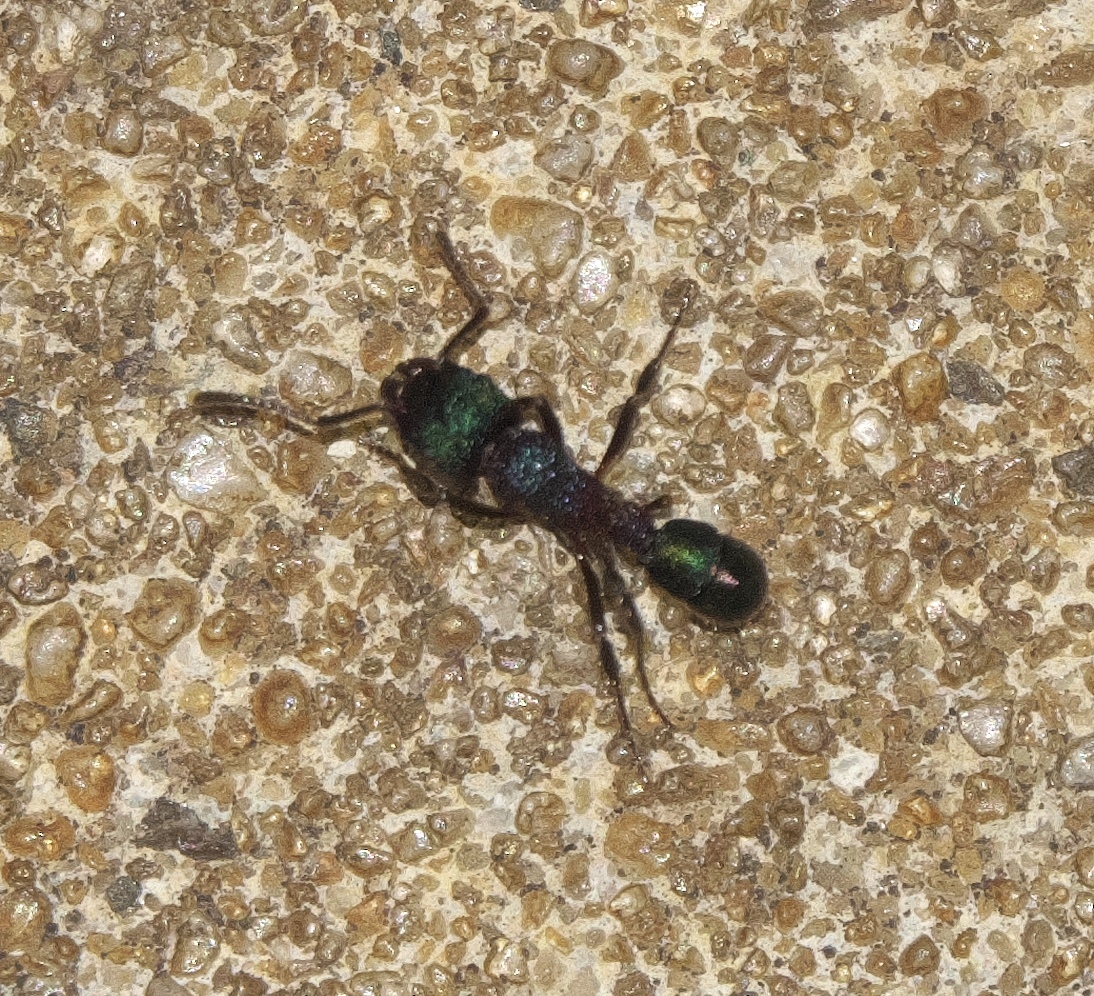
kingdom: Animalia
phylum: Arthropoda
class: Insecta
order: Hymenoptera
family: Formicidae
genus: Rhytidoponera
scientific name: Rhytidoponera metallica
